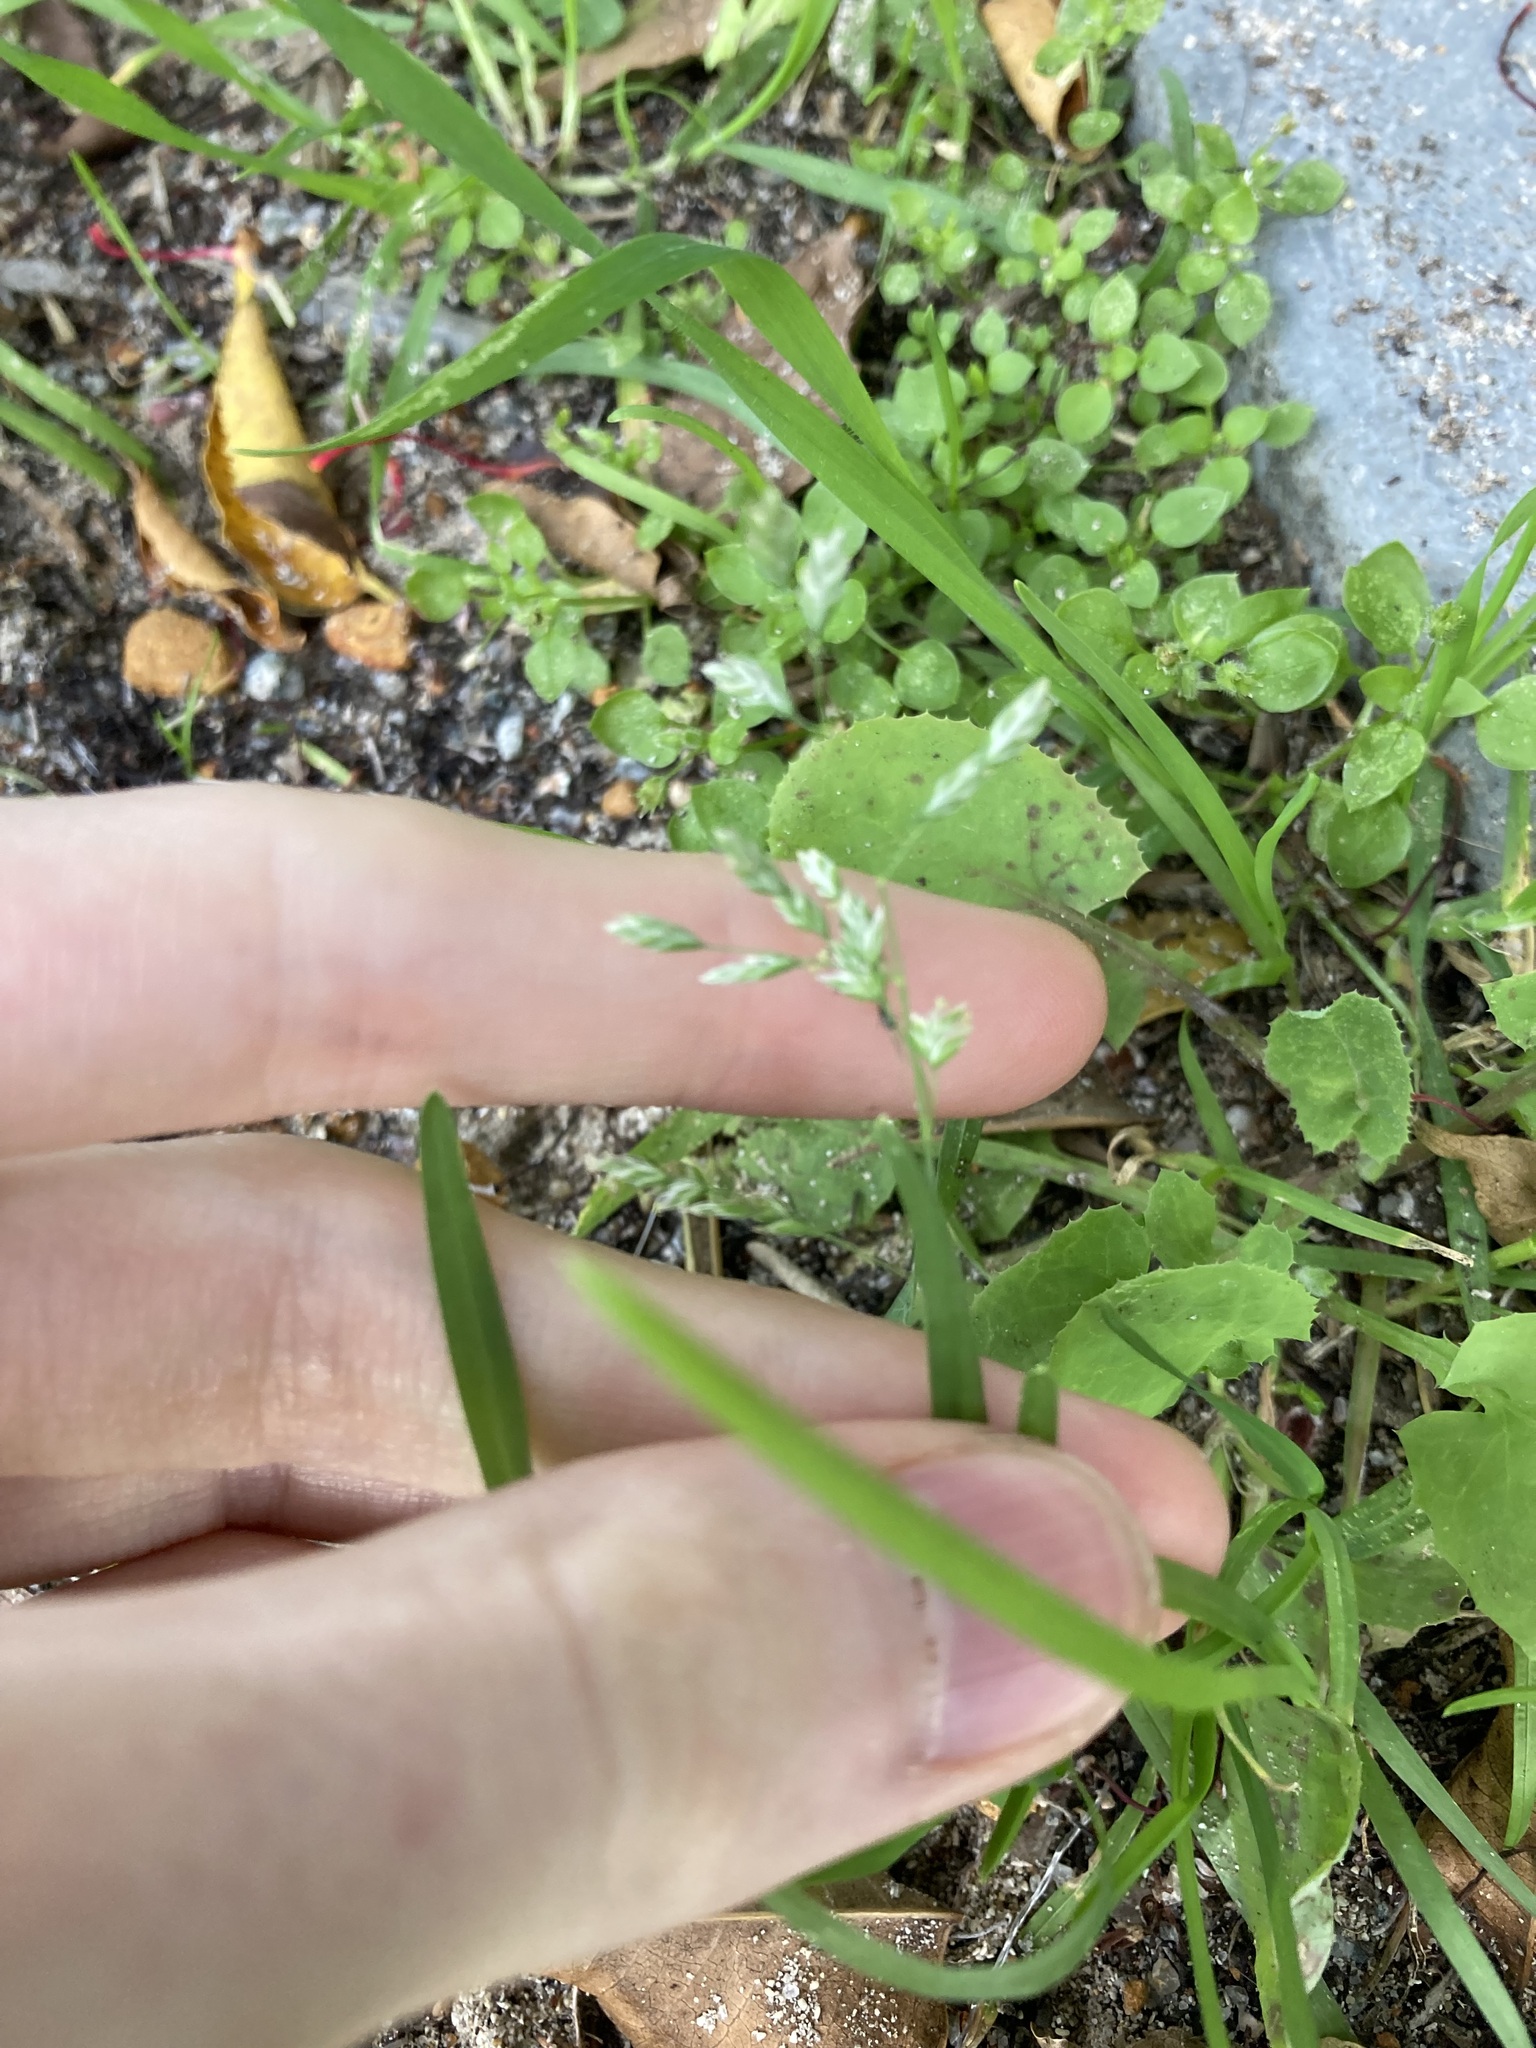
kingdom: Plantae
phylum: Tracheophyta
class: Liliopsida
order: Poales
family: Poaceae
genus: Poa
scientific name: Poa annua
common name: Annual bluegrass
